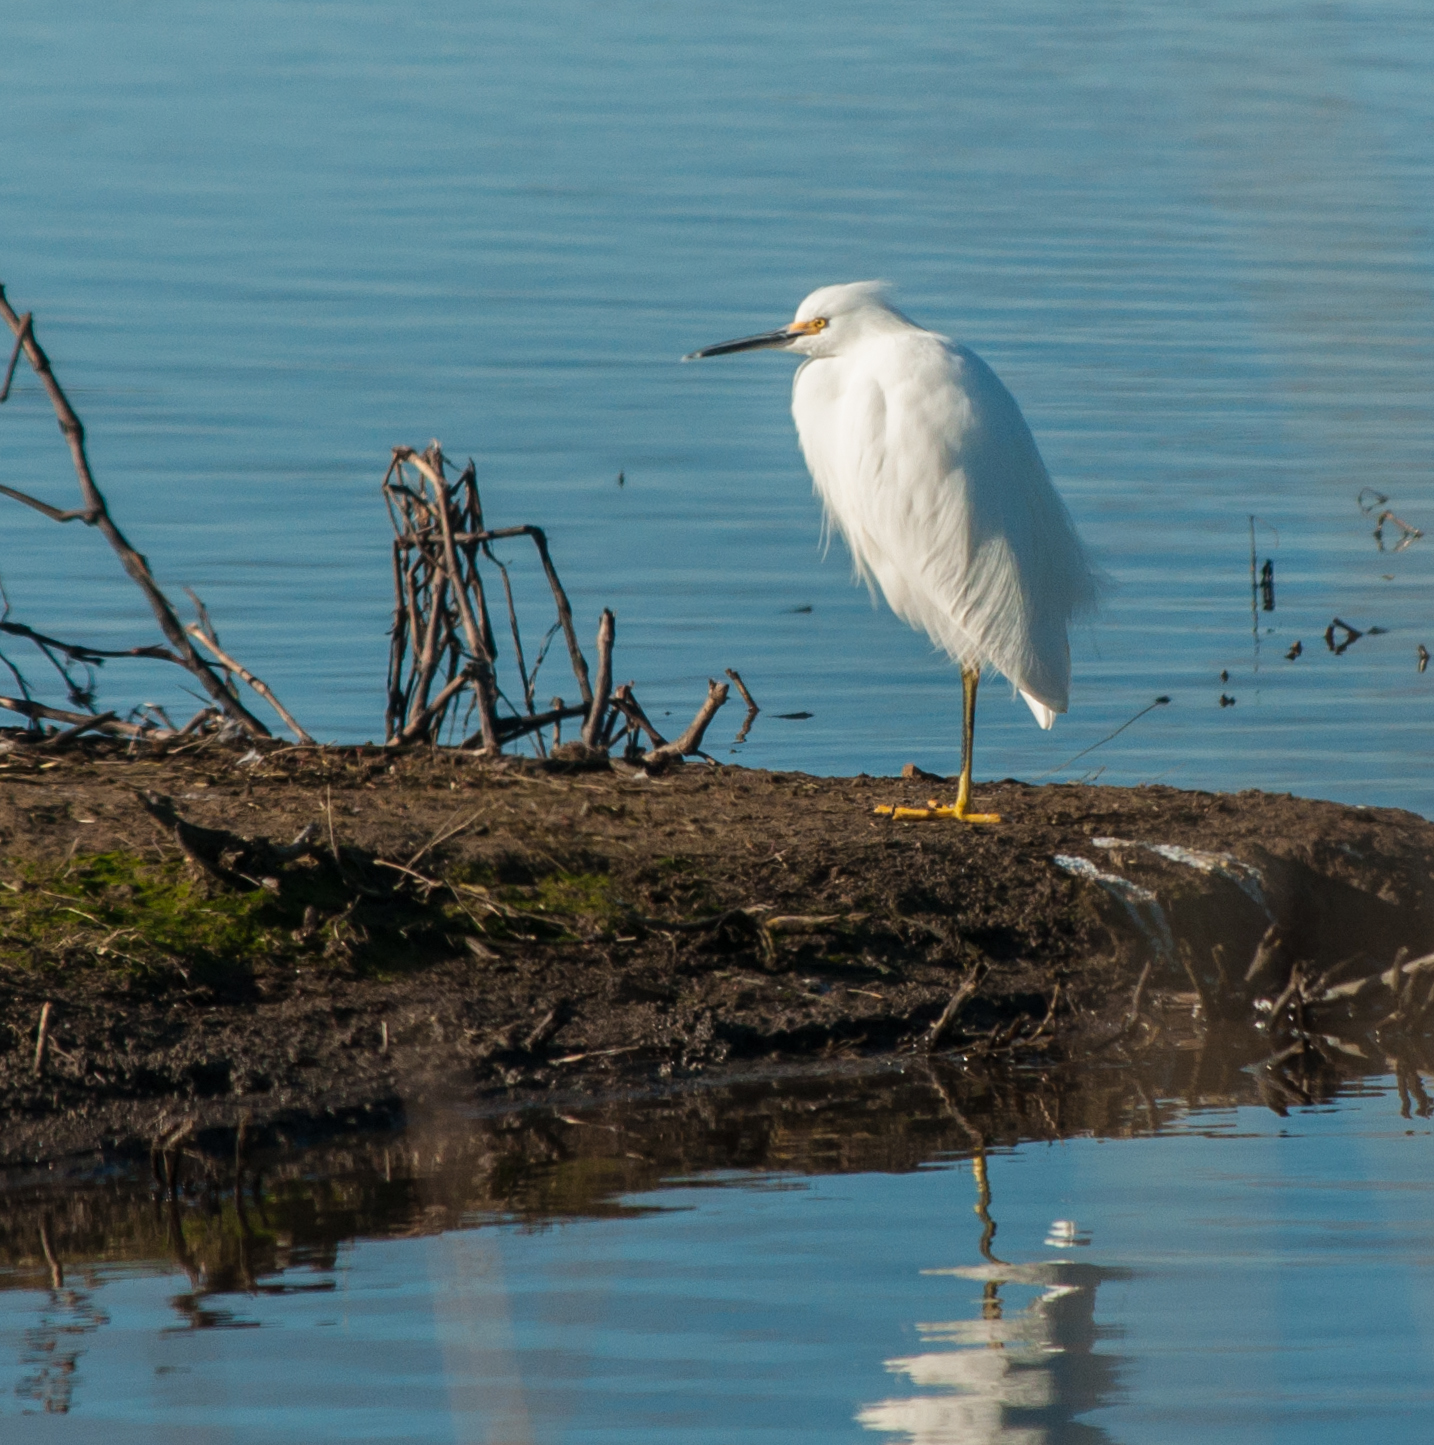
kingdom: Animalia
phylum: Chordata
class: Aves
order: Pelecaniformes
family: Ardeidae
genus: Egretta
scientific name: Egretta thula
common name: Snowy egret
